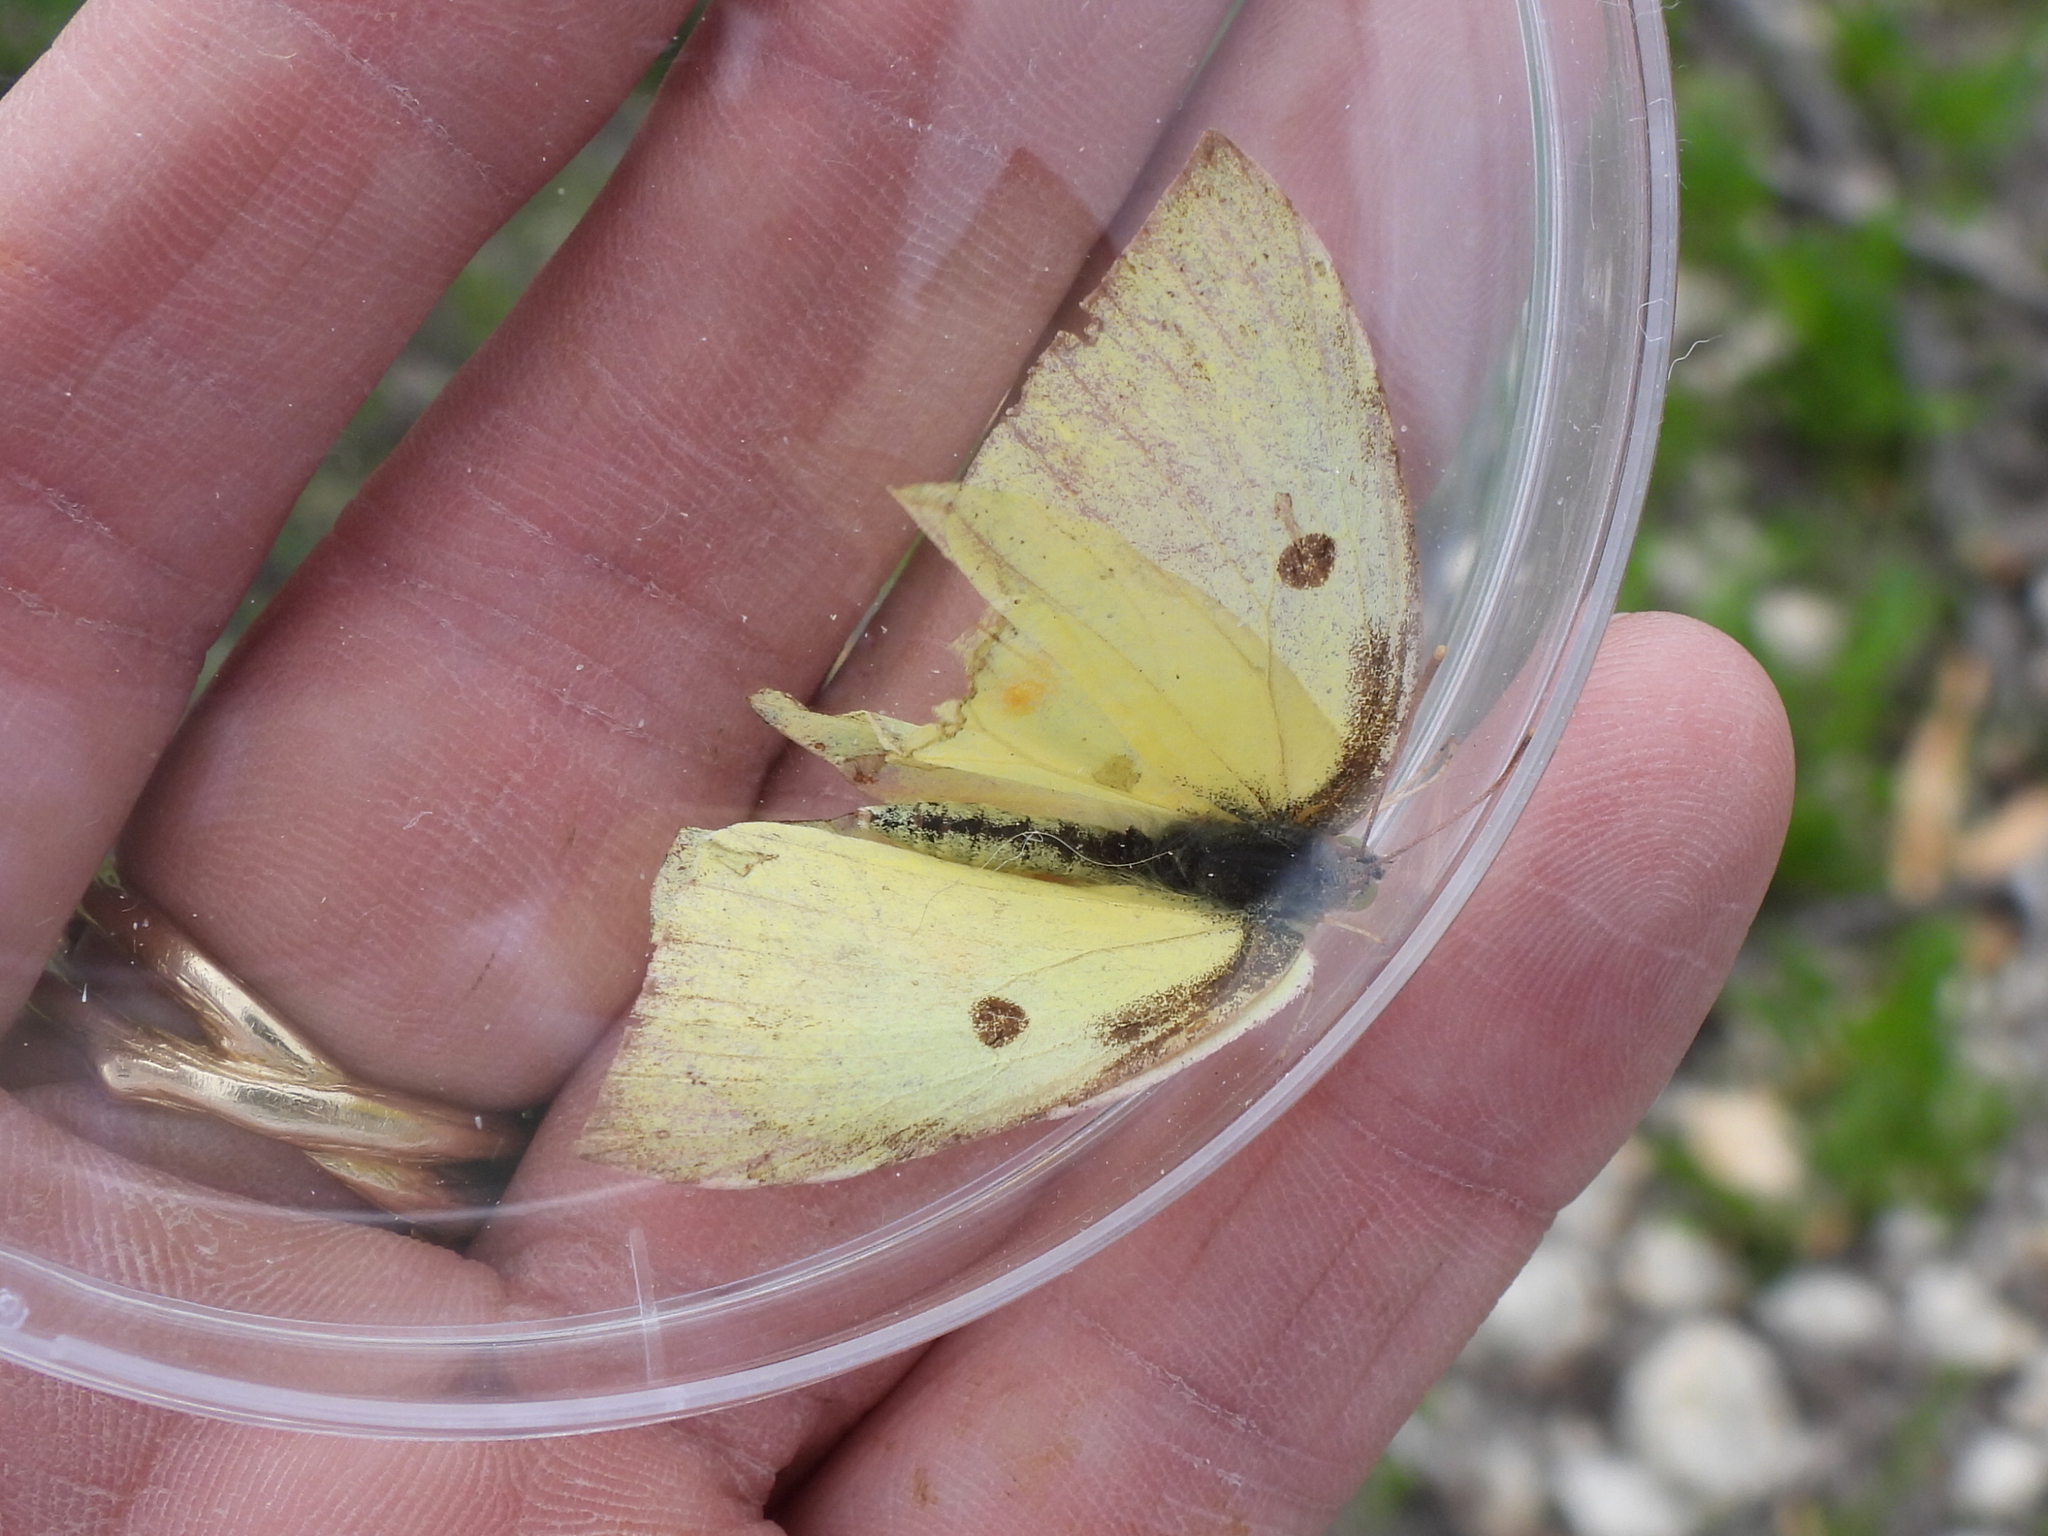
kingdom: Animalia
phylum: Arthropoda
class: Insecta
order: Lepidoptera
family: Pieridae
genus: Zerene
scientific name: Zerene cesonia
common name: Southern dogface
